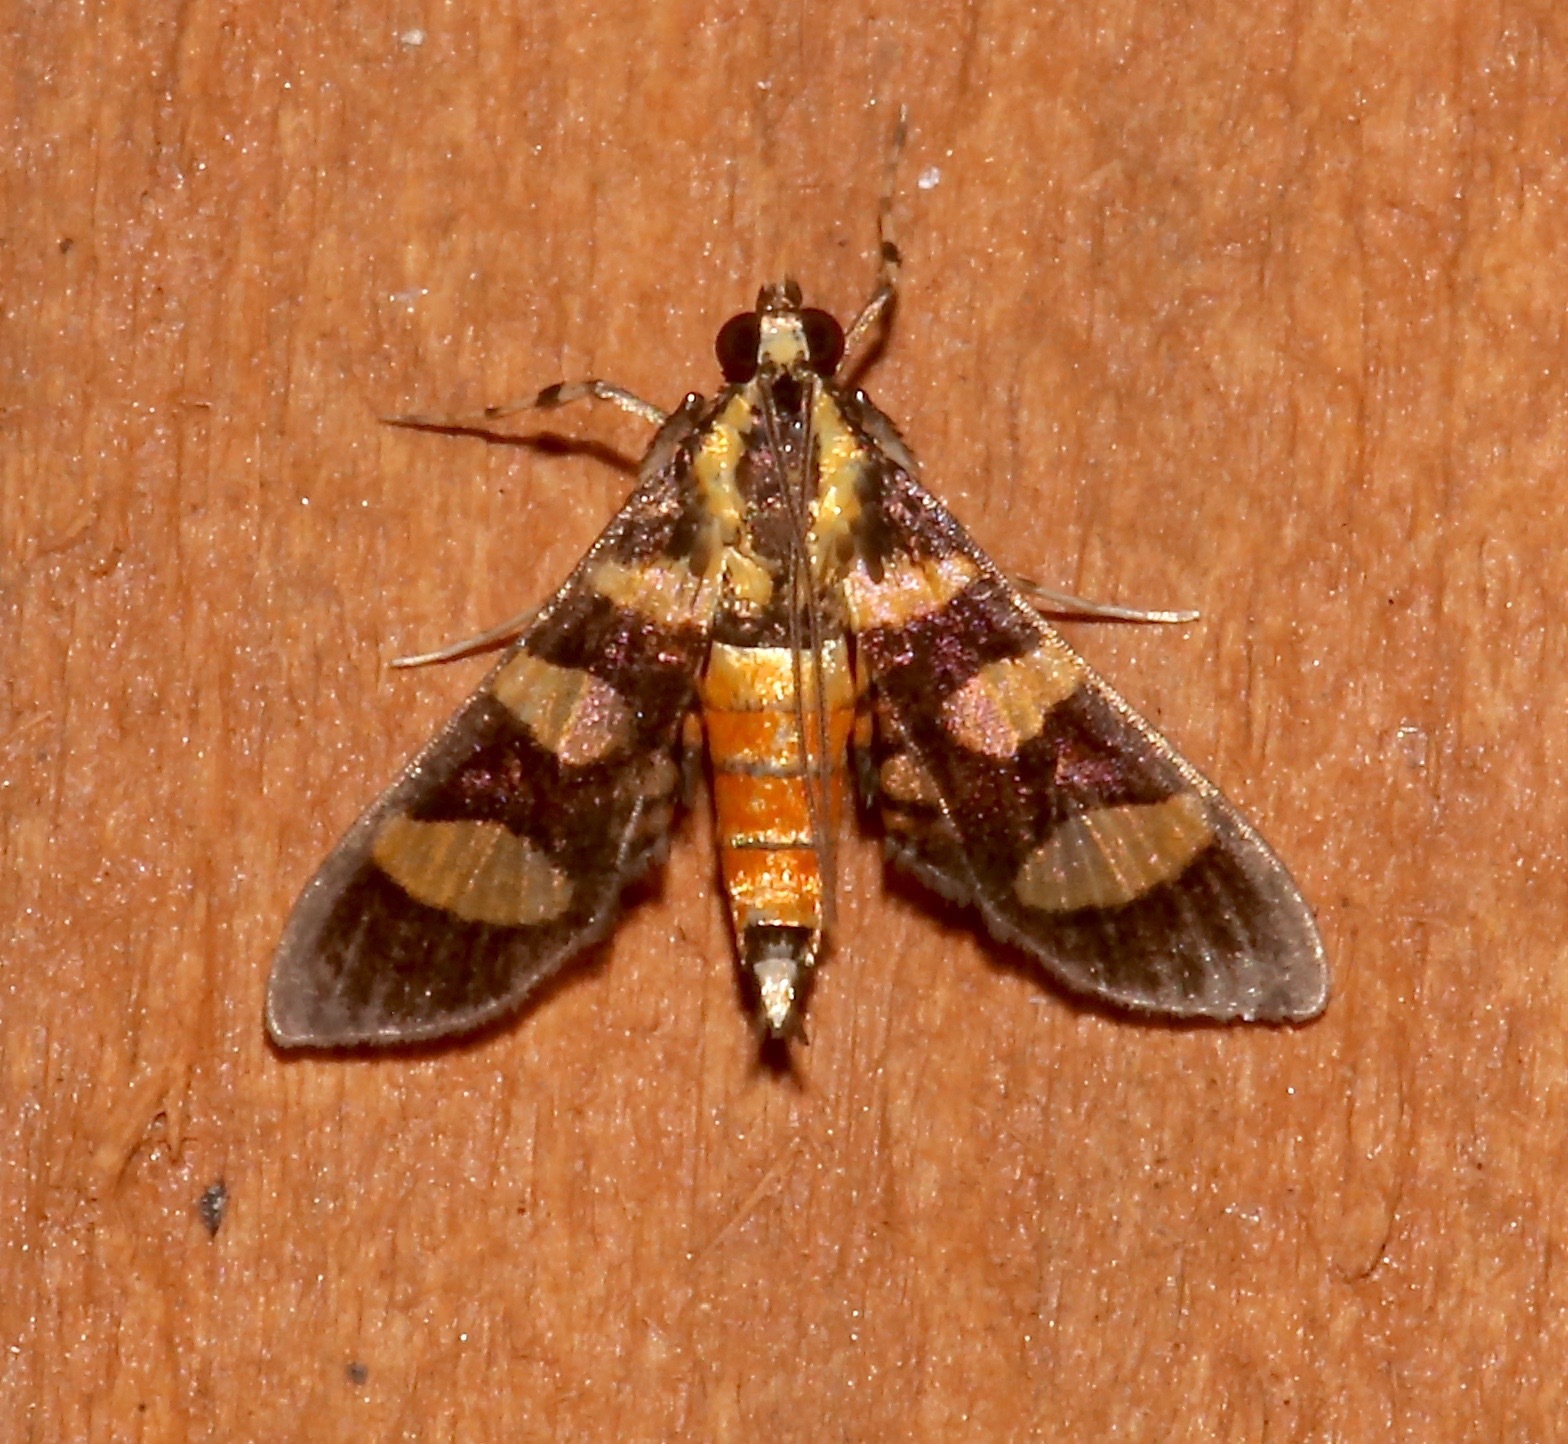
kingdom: Animalia
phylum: Arthropoda
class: Insecta
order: Lepidoptera
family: Crambidae
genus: Syngamia
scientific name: Syngamia florella
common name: Orange-spotted flower moth
